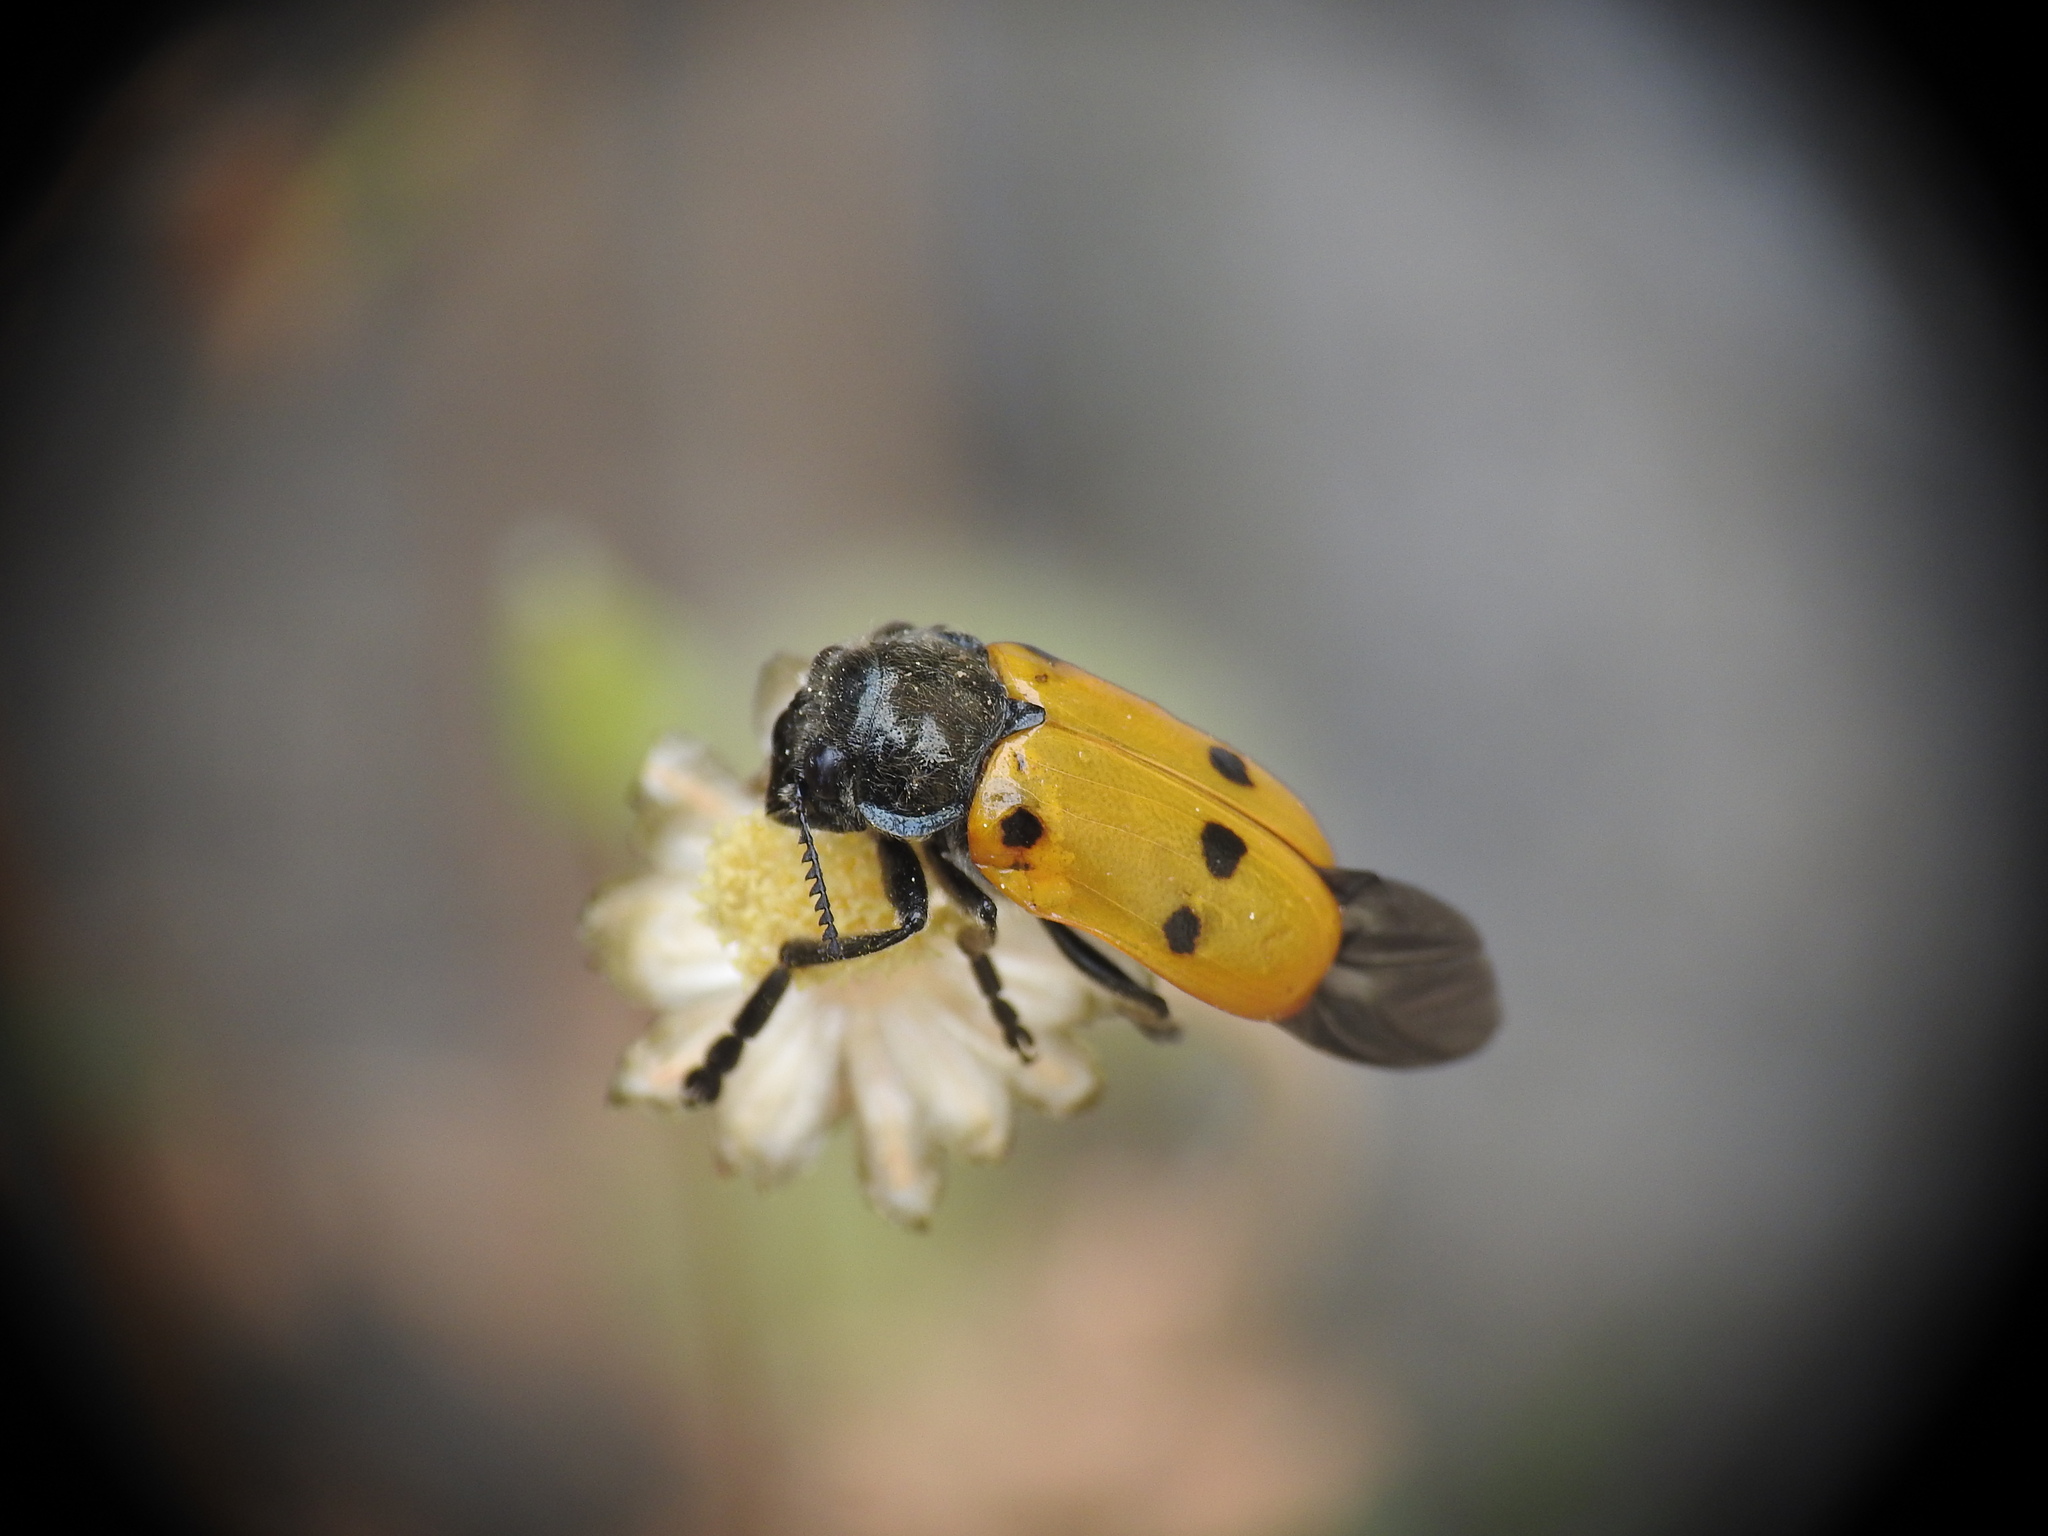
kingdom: Animalia
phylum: Arthropoda
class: Insecta
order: Coleoptera
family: Chrysomelidae
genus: Lachnaia
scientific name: Lachnaia zoiai
